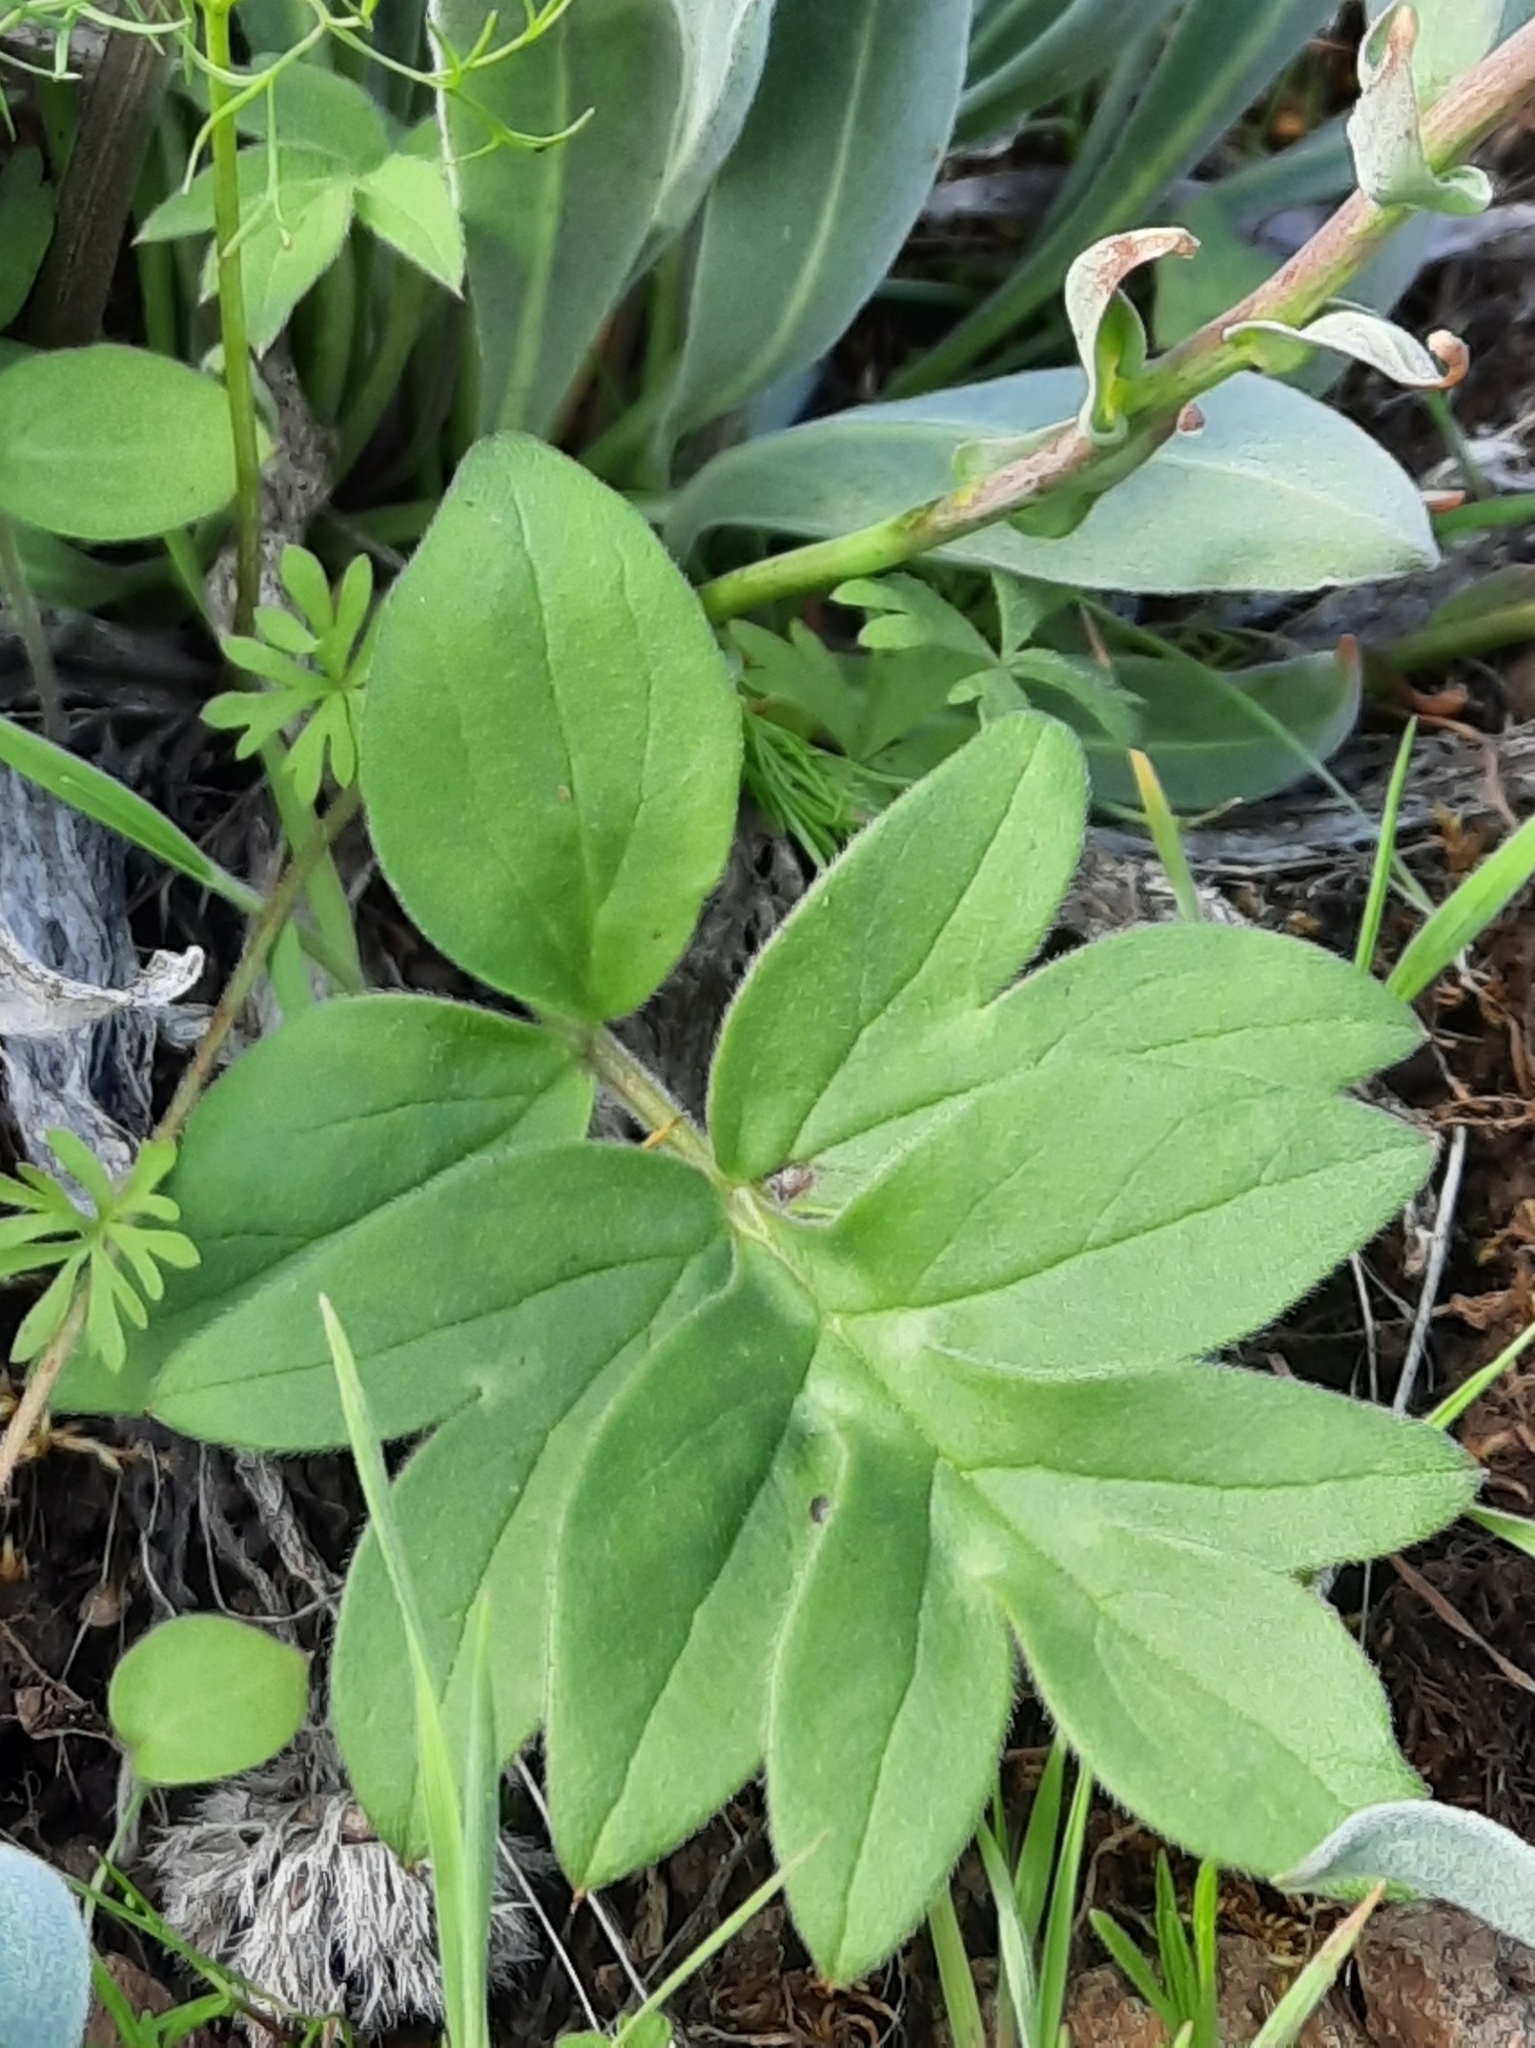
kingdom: Plantae
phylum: Tracheophyta
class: Magnoliopsida
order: Boraginales
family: Hydrophyllaceae
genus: Hydrophyllum
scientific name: Hydrophyllum capitatum
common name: Woollen-breeches
